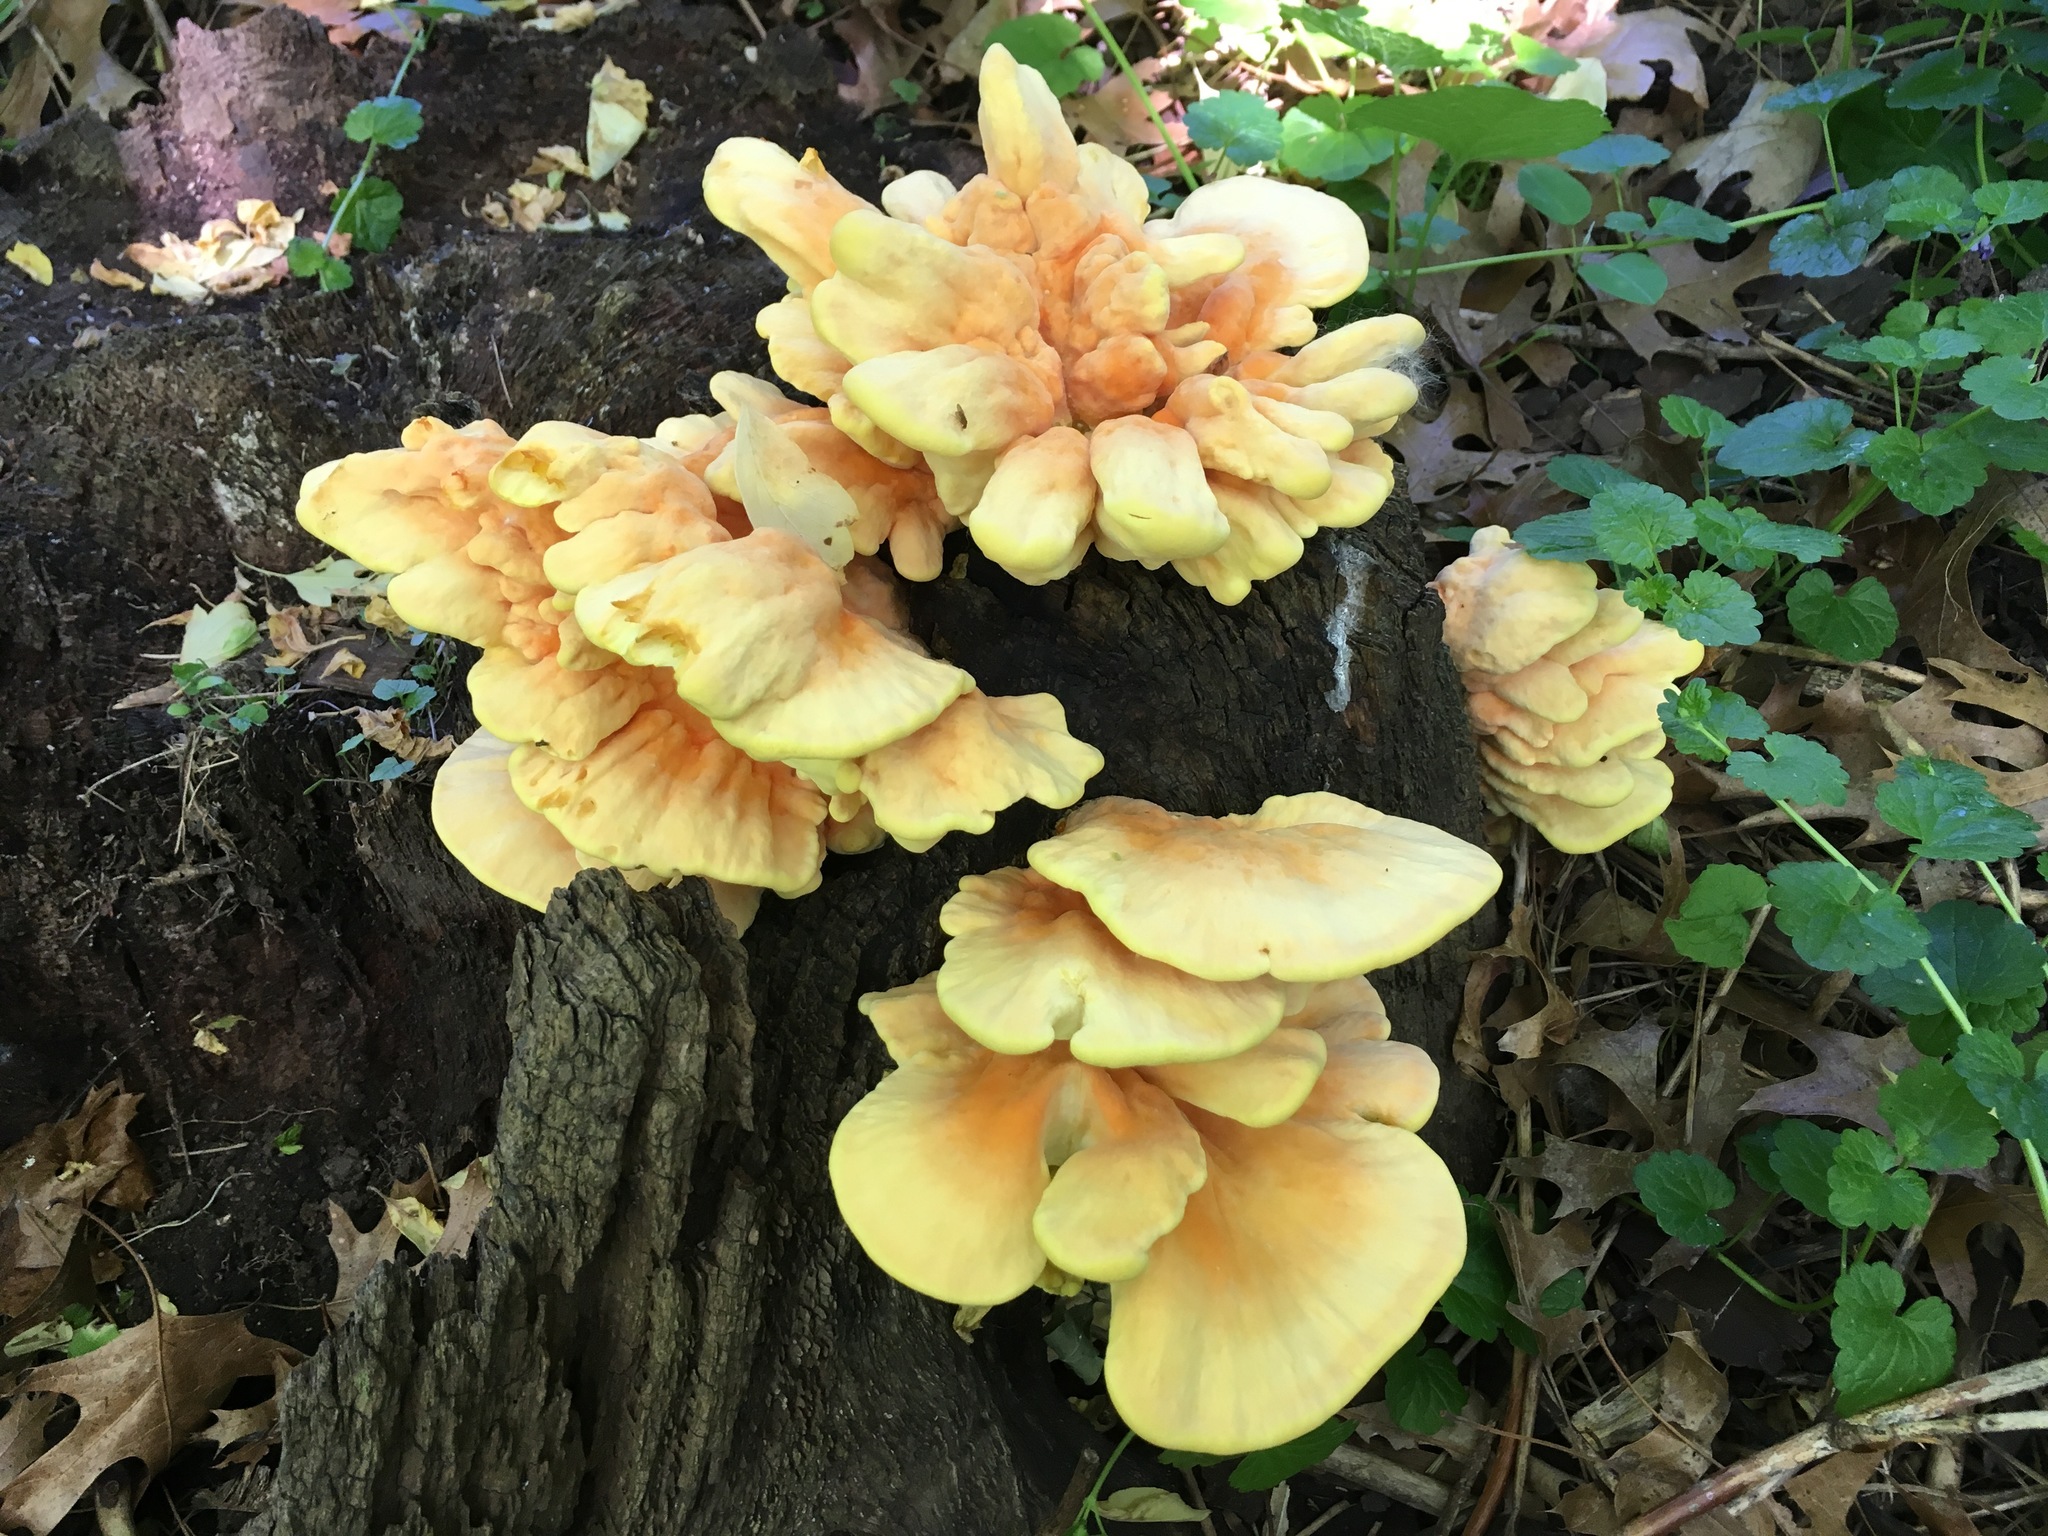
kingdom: Fungi
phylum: Basidiomycota
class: Agaricomycetes
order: Polyporales
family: Laetiporaceae
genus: Laetiporus
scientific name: Laetiporus sulphureus
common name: Chicken of the woods
